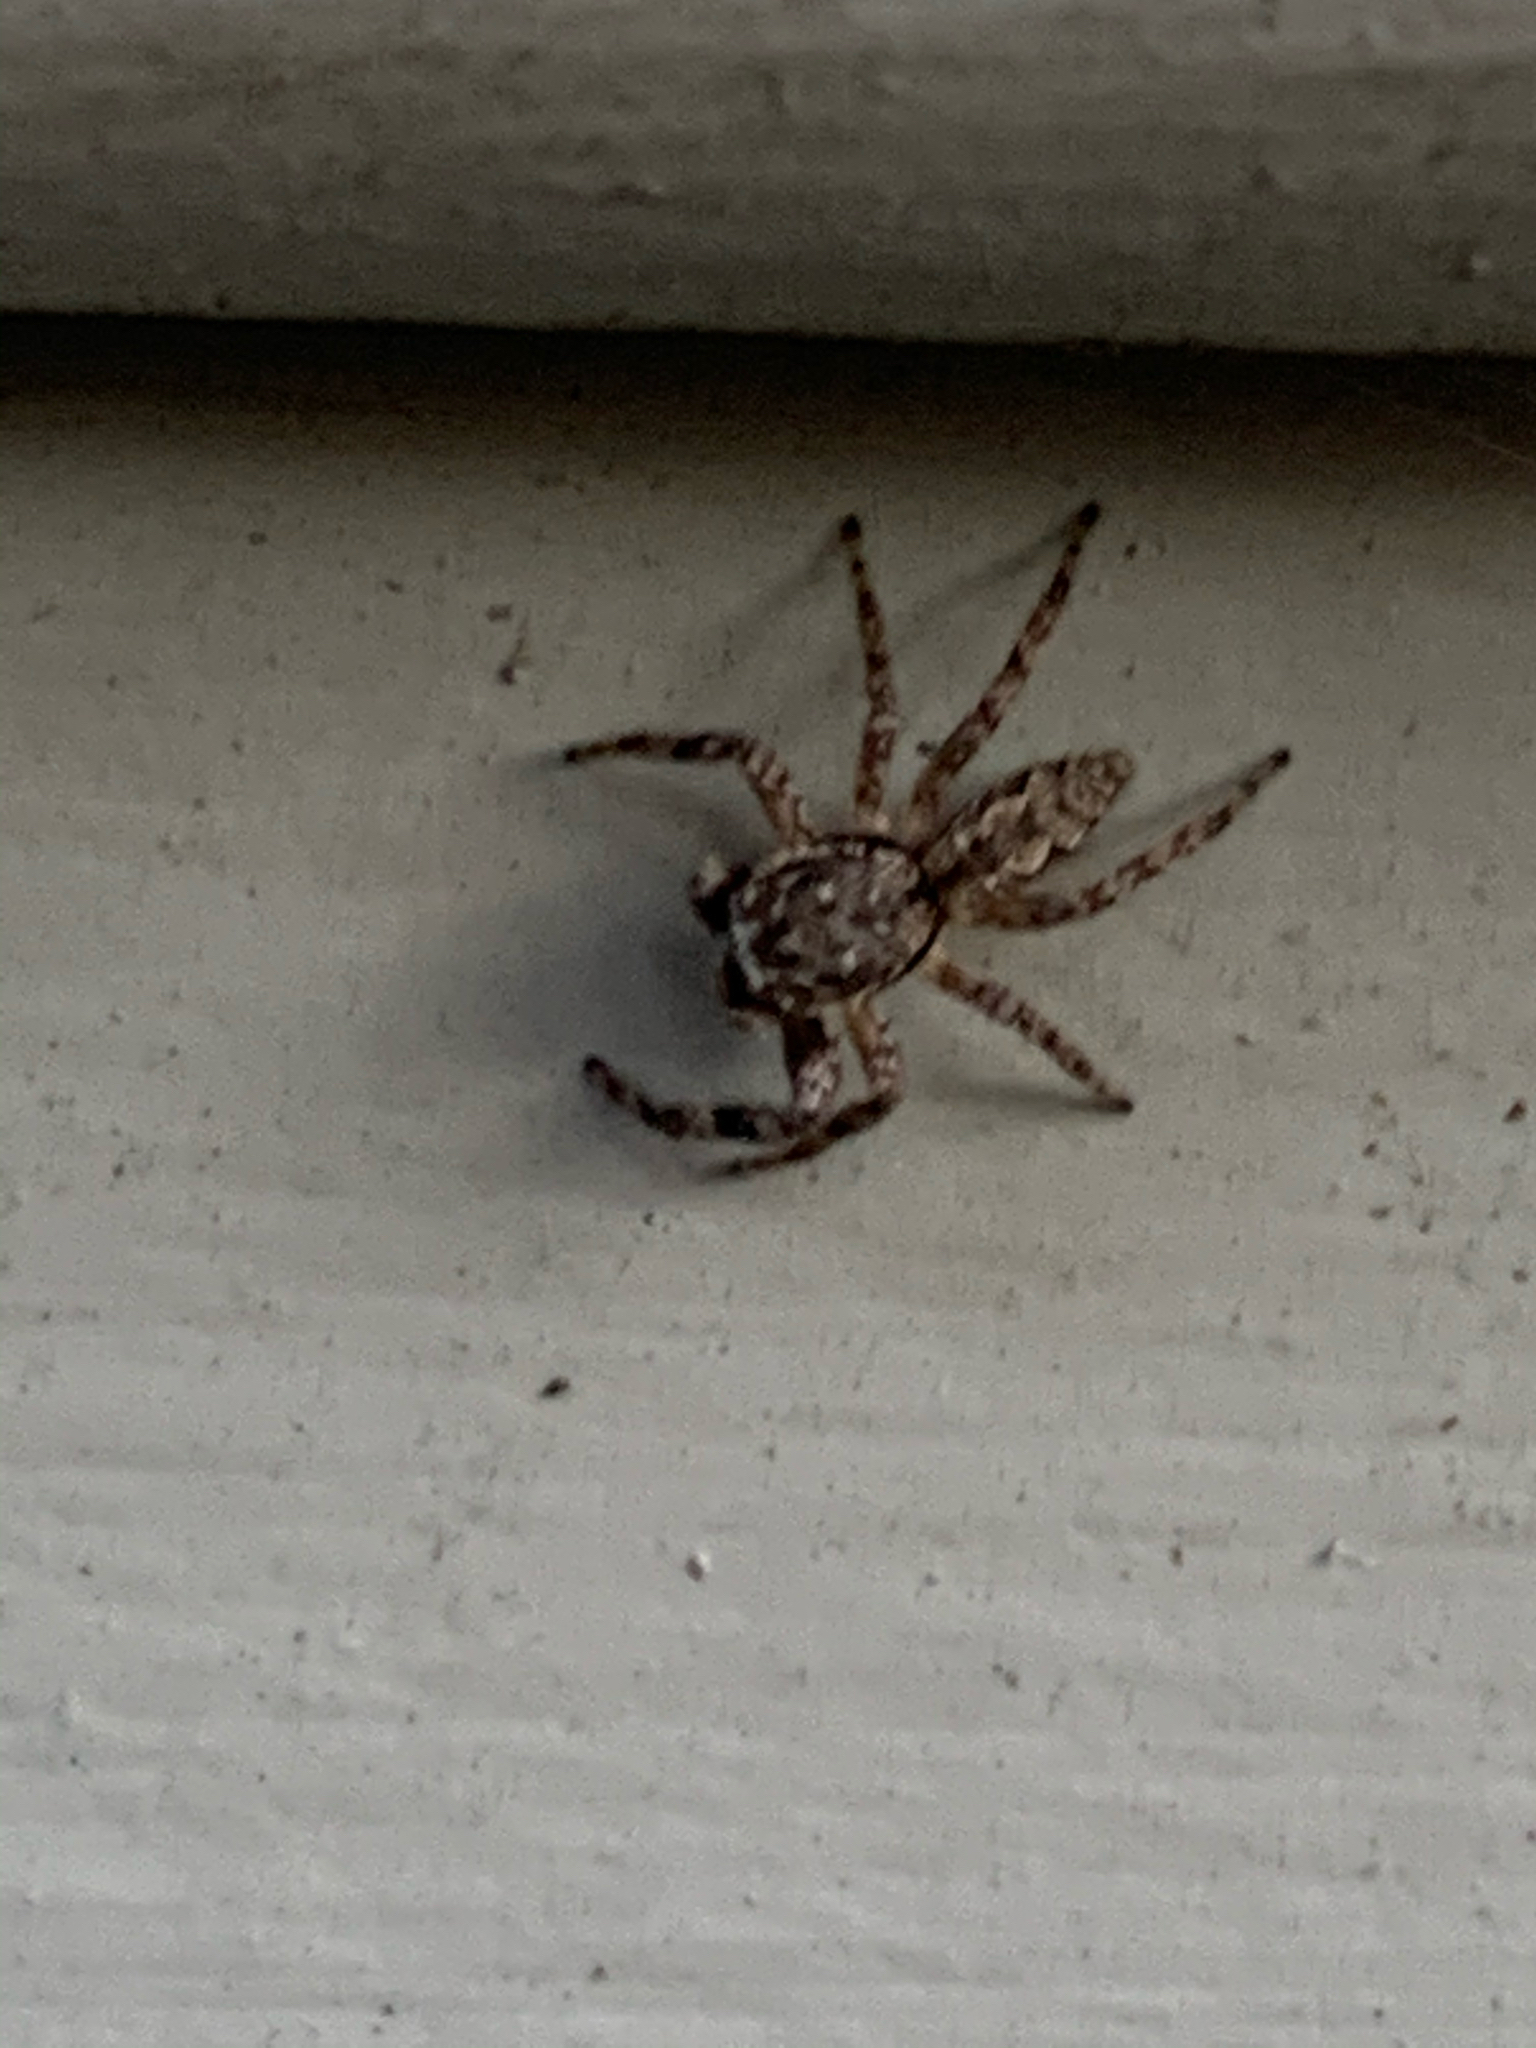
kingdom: Animalia
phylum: Arthropoda
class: Arachnida
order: Araneae
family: Salticidae
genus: Platycryptus
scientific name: Platycryptus undatus
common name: Tan jumping spider
